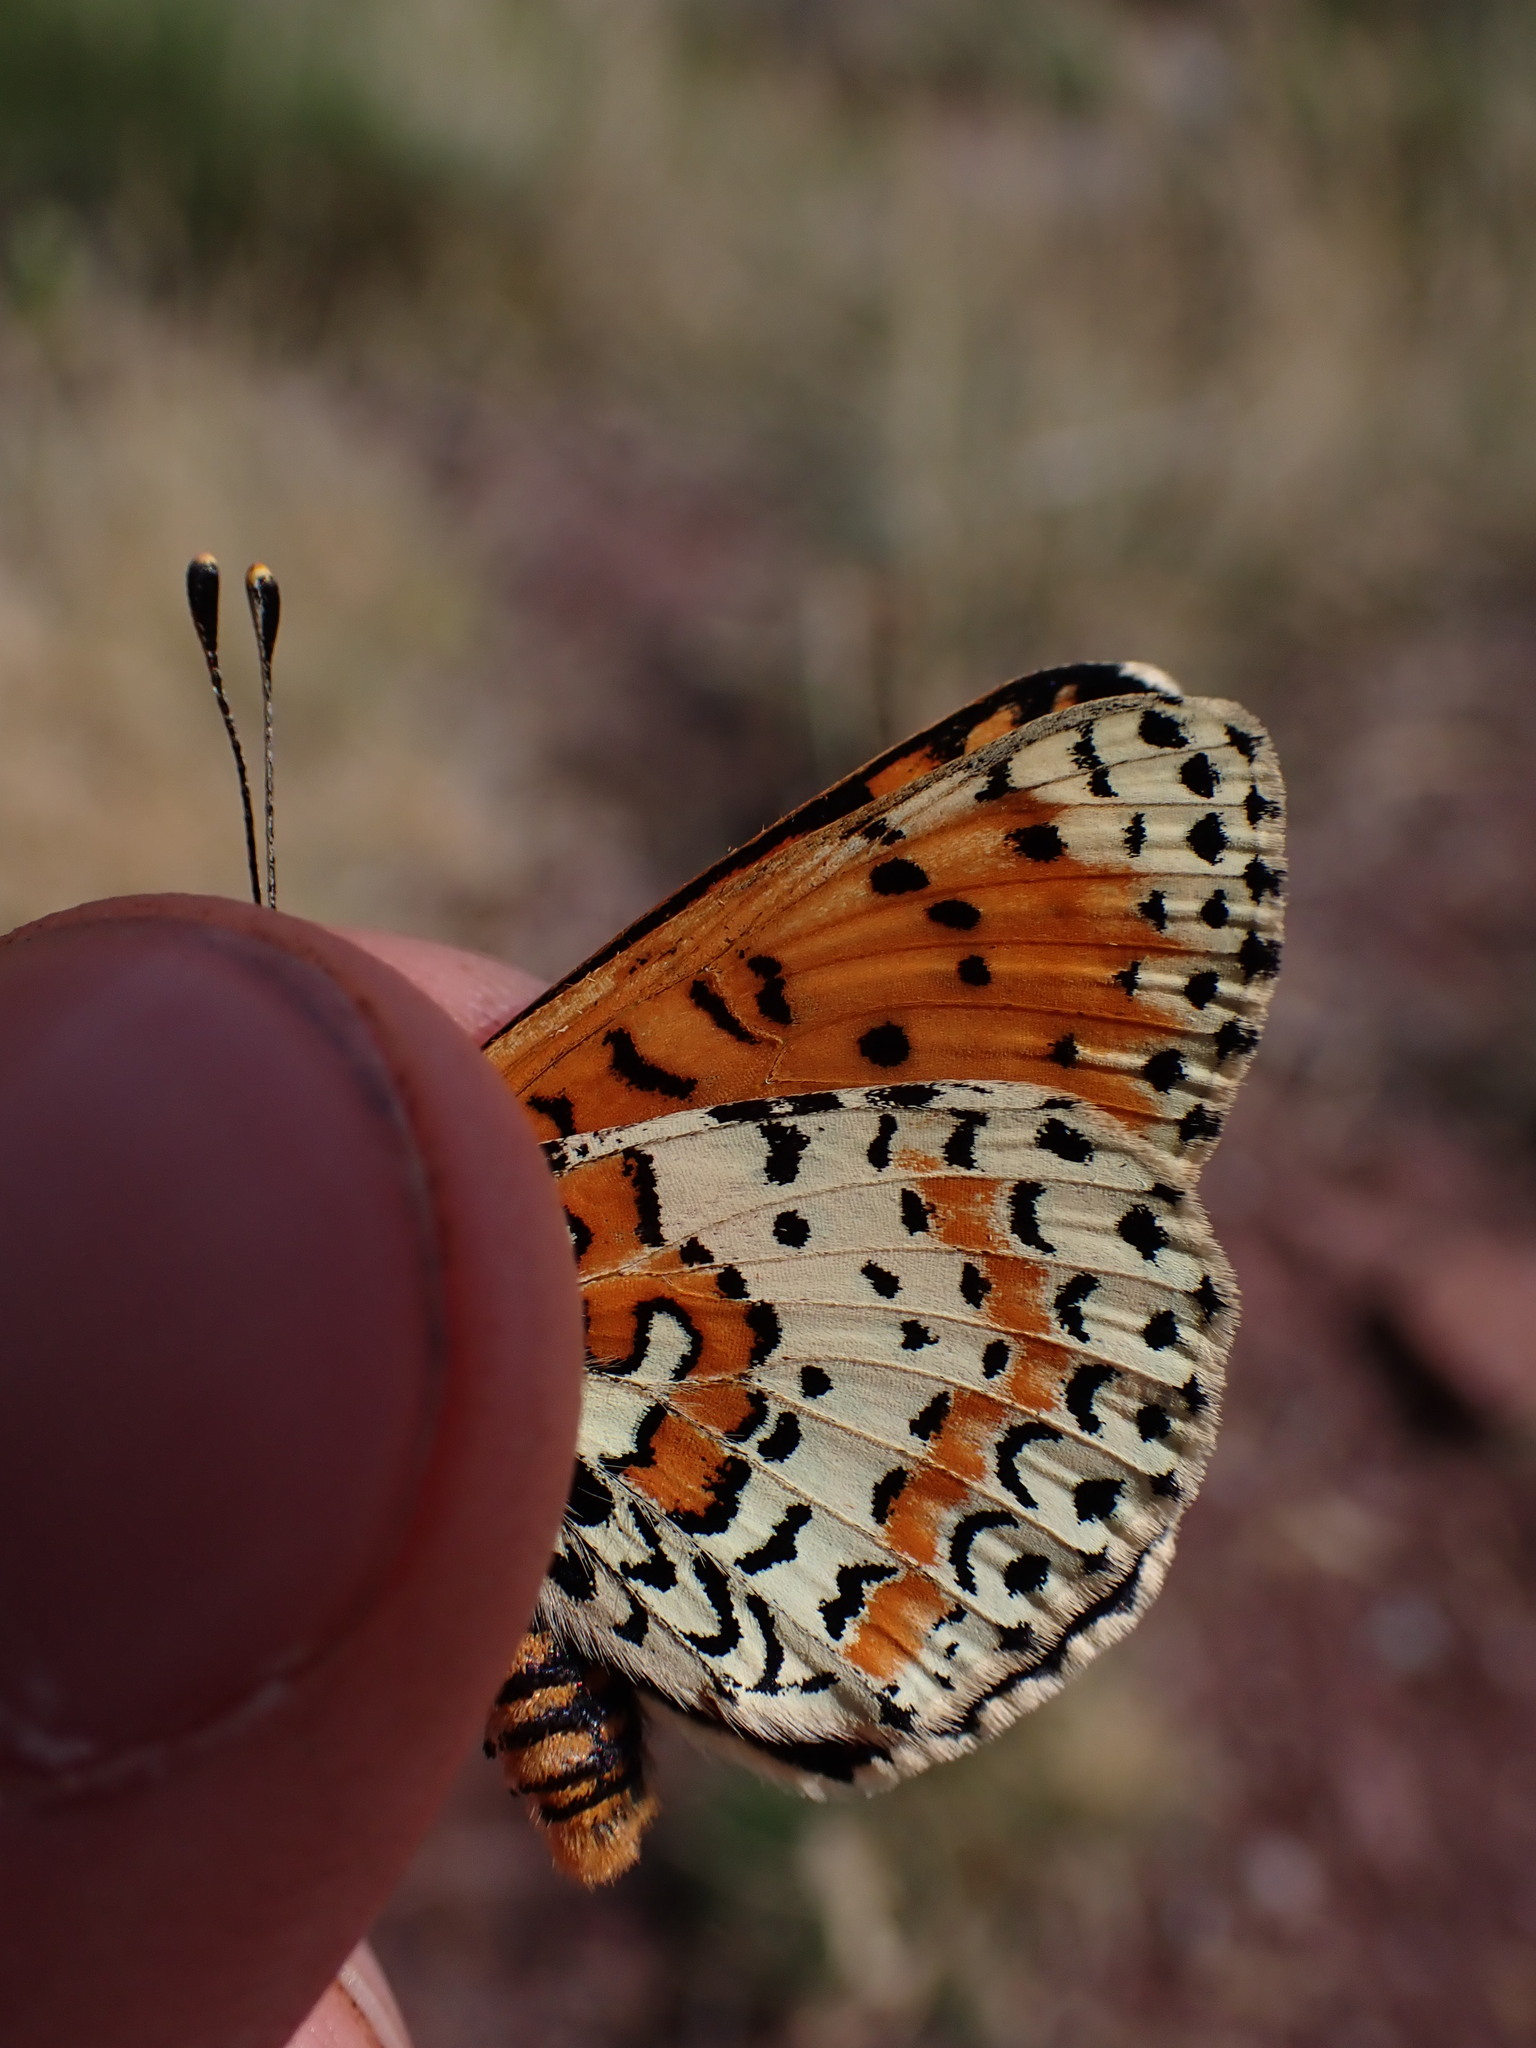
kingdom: Animalia
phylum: Arthropoda
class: Insecta
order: Lepidoptera
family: Nymphalidae
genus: Melitaea
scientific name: Melitaea didyma
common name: Spotted fritillary
